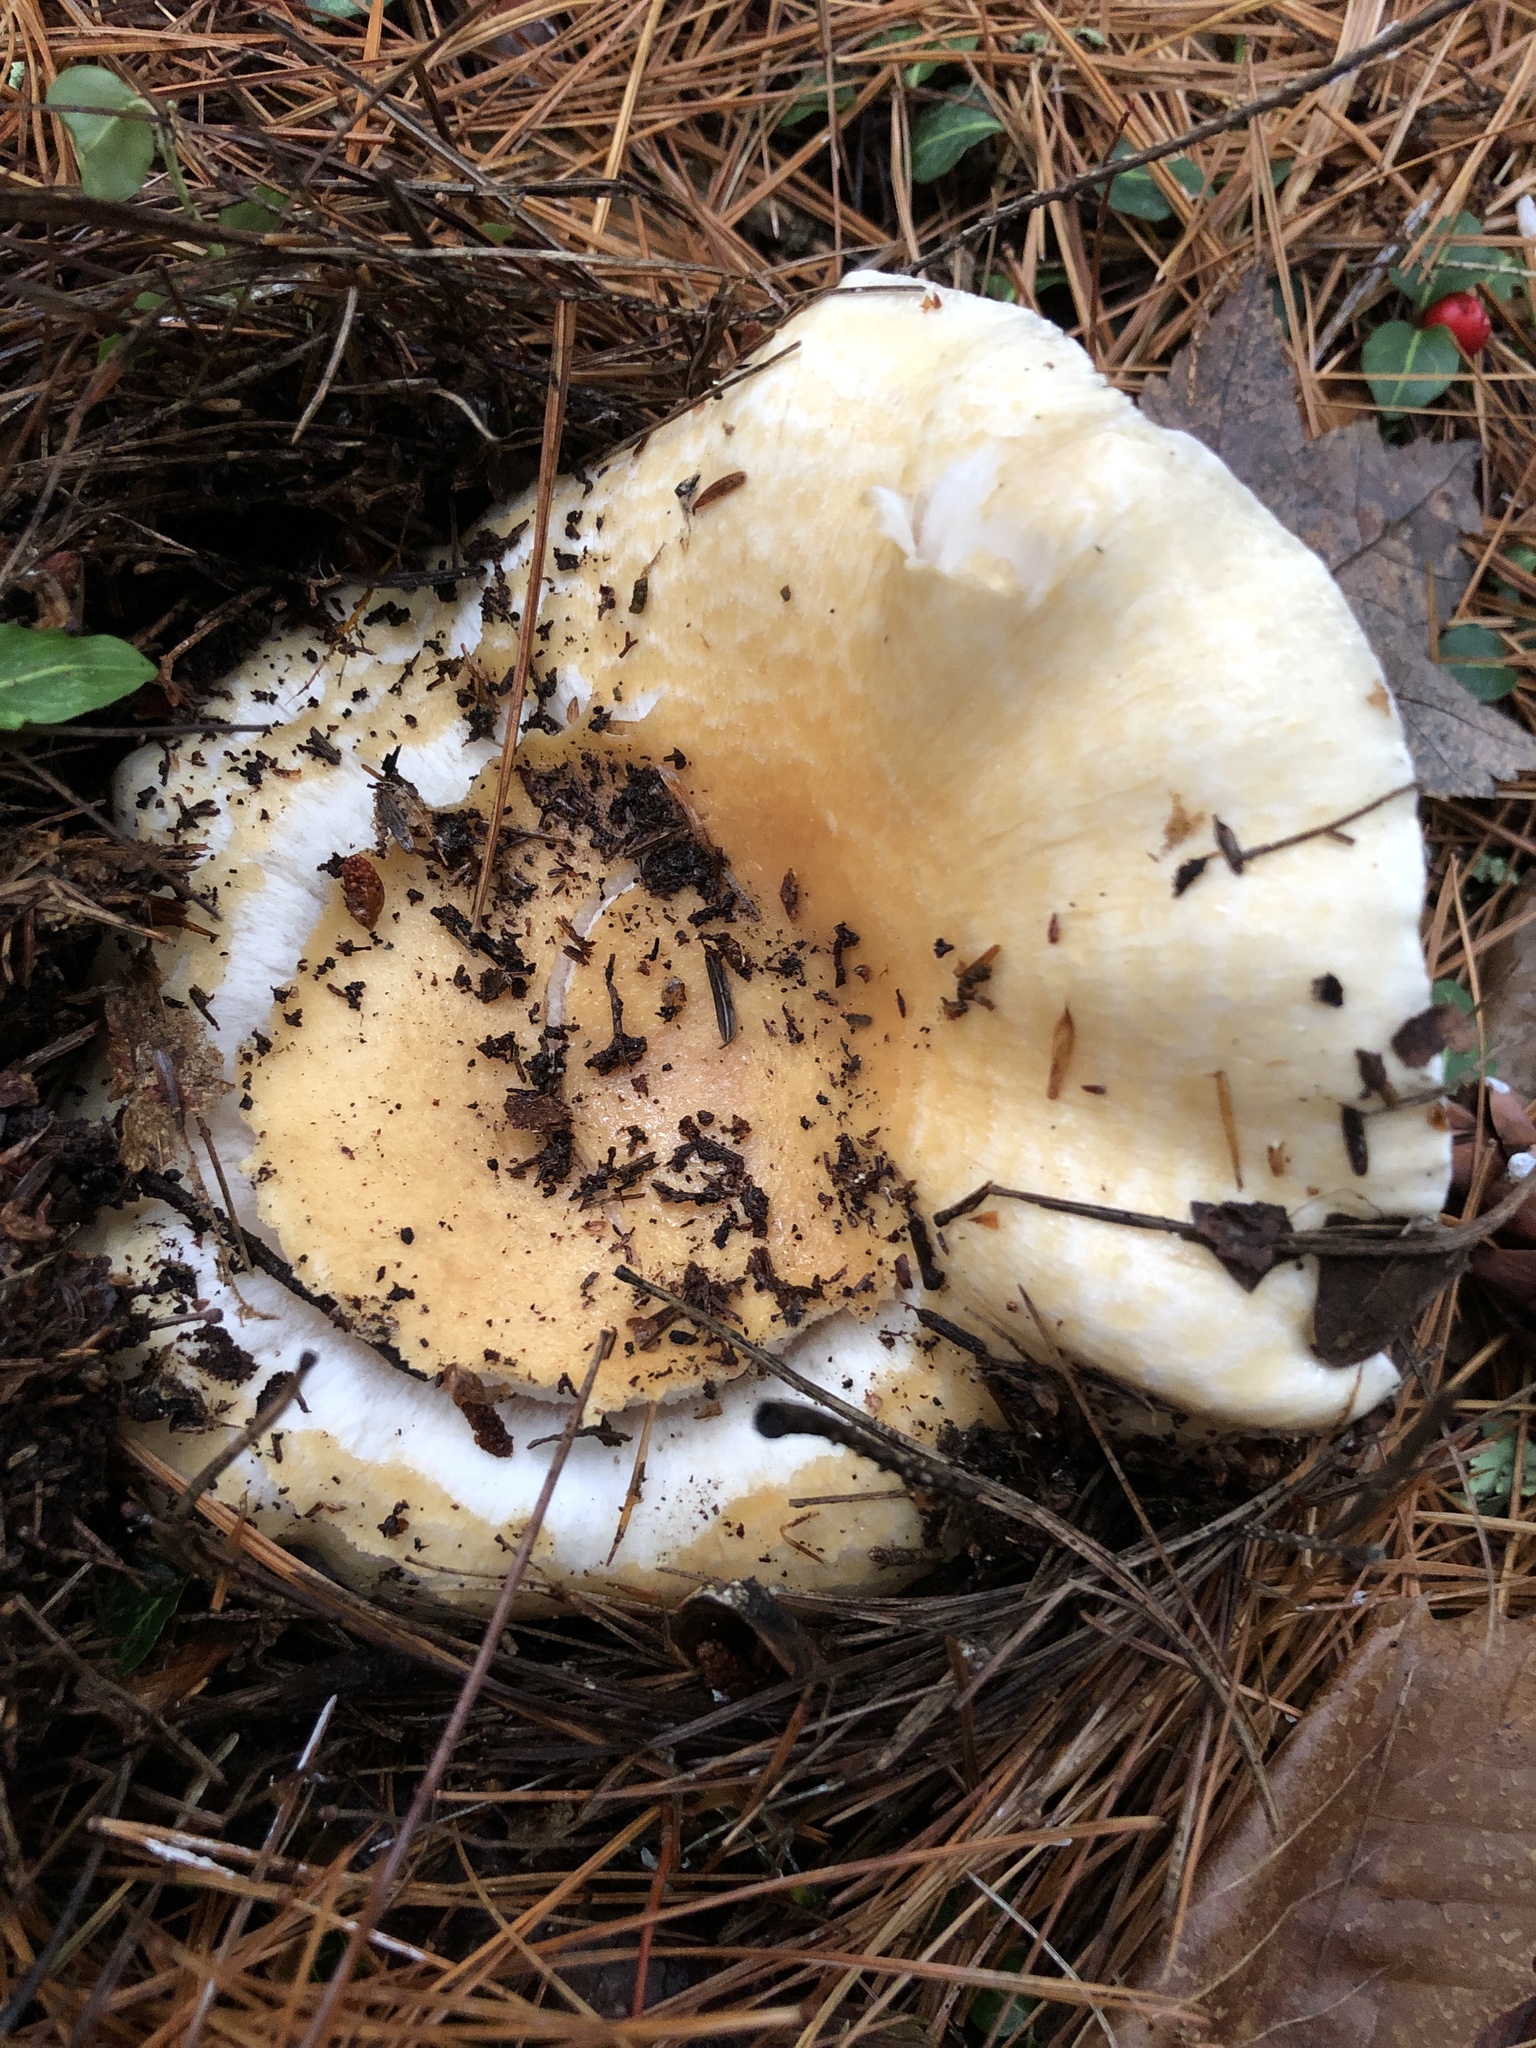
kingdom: Fungi
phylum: Basidiomycota
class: Agaricomycetes
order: Russulales
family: Russulaceae
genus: Russula
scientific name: Russula brevipes
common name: Short-stemmed russula
